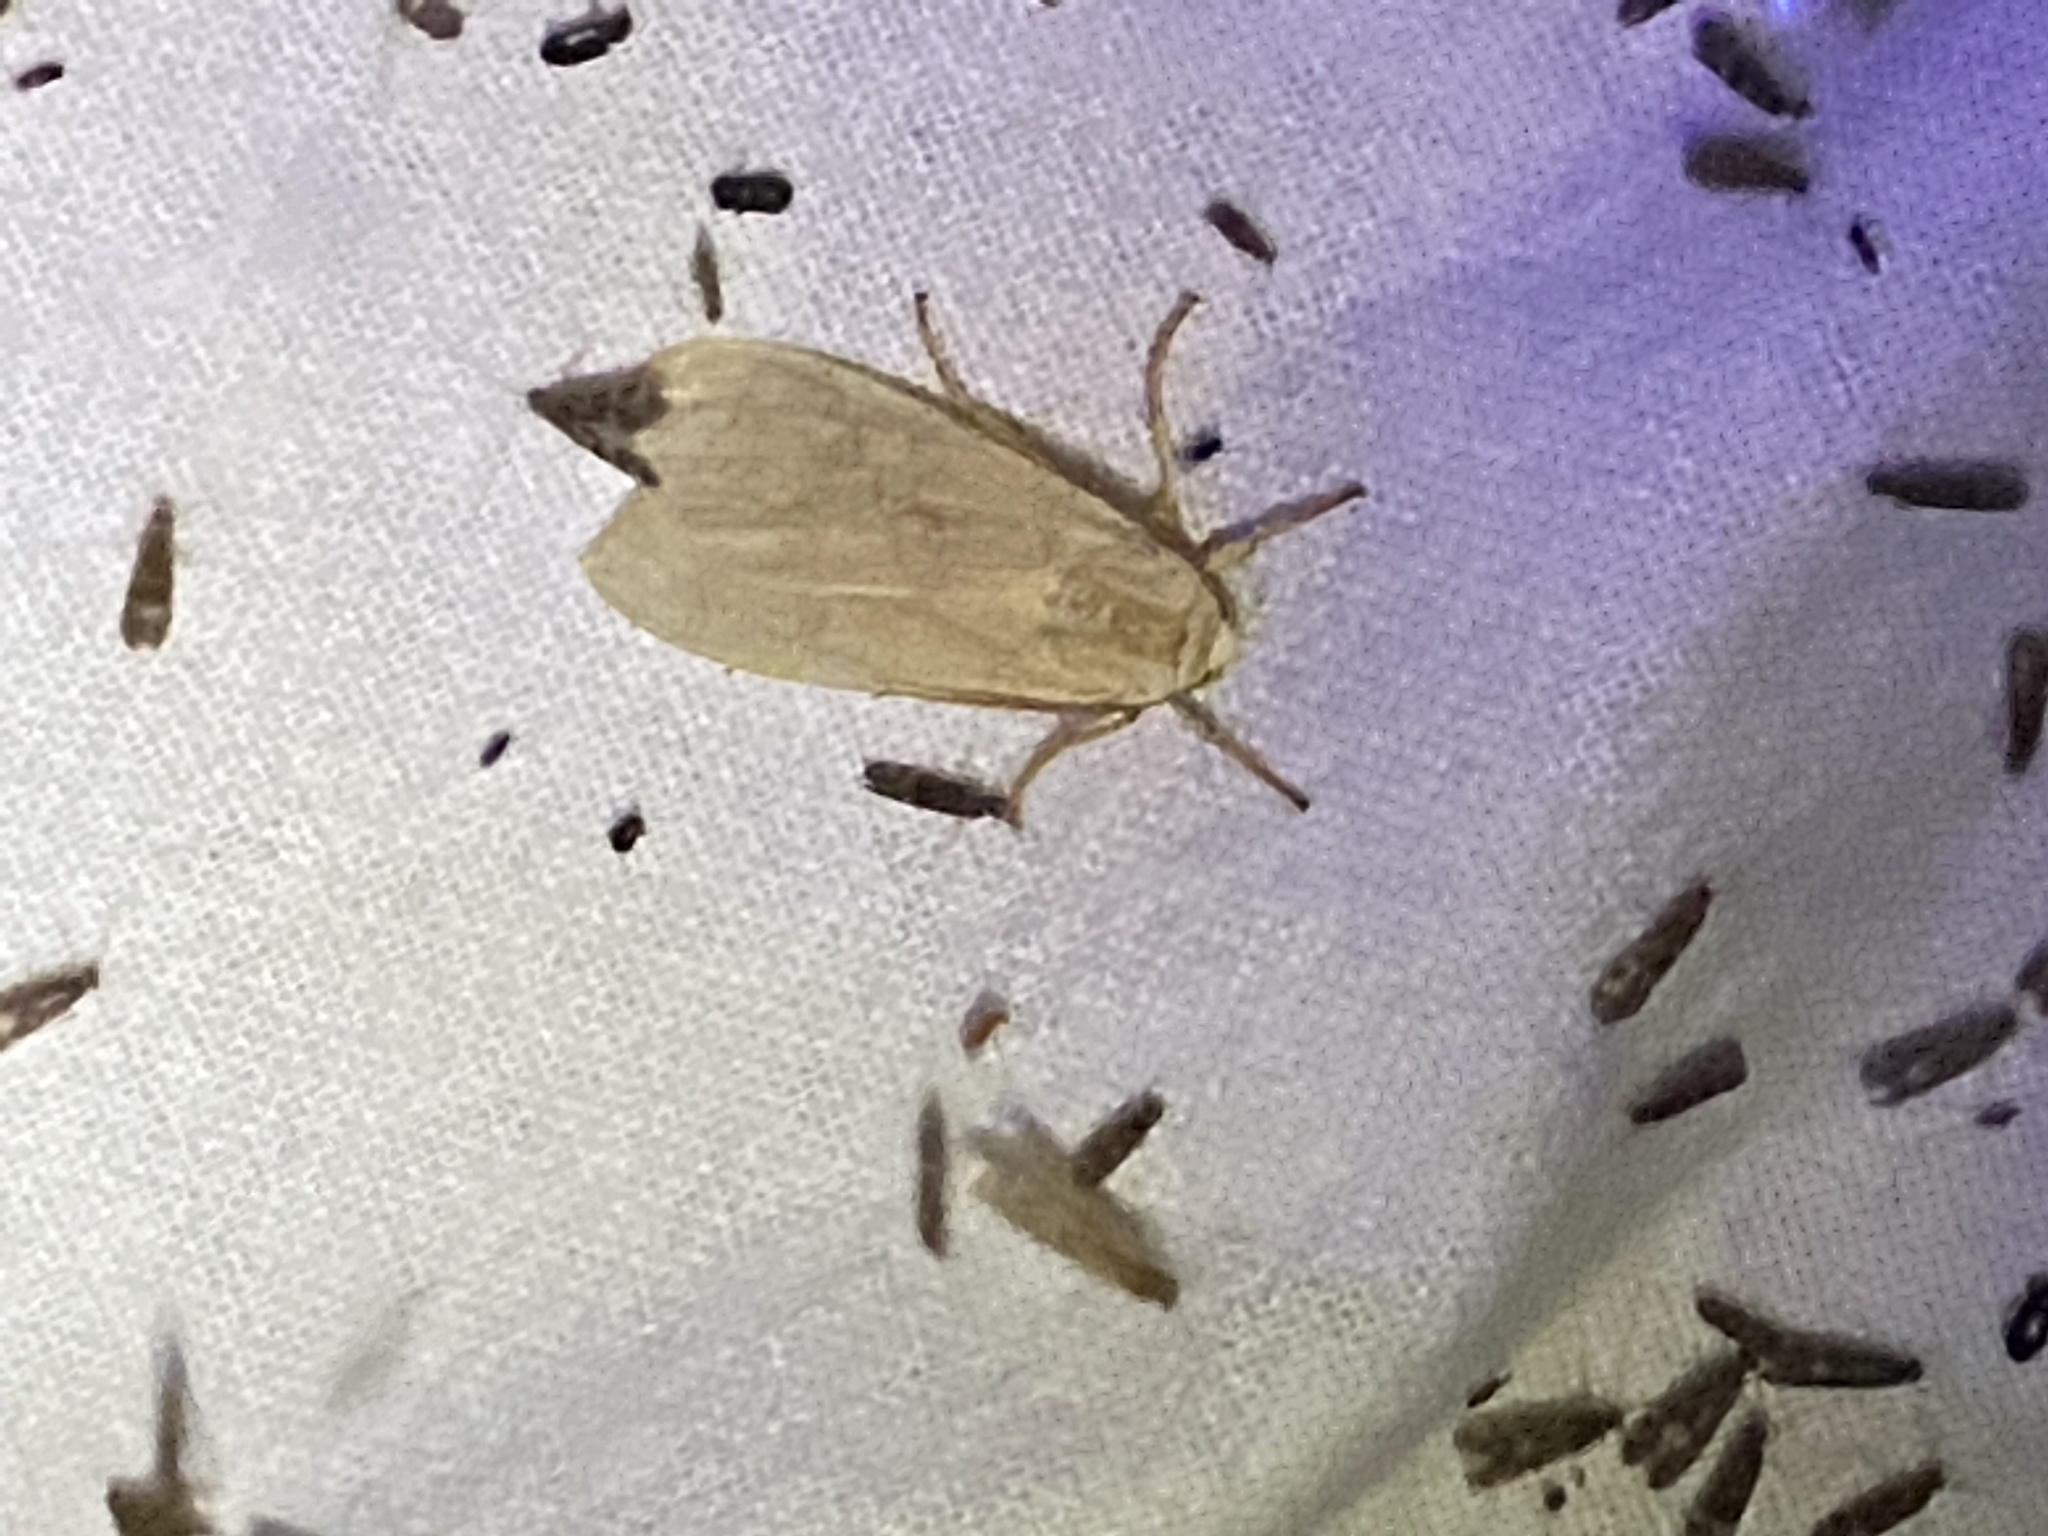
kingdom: Animalia
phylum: Arthropoda
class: Insecta
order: Lepidoptera
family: Erebidae
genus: Crambidia
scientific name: Crambidia pallida
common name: Pale lichen moth
